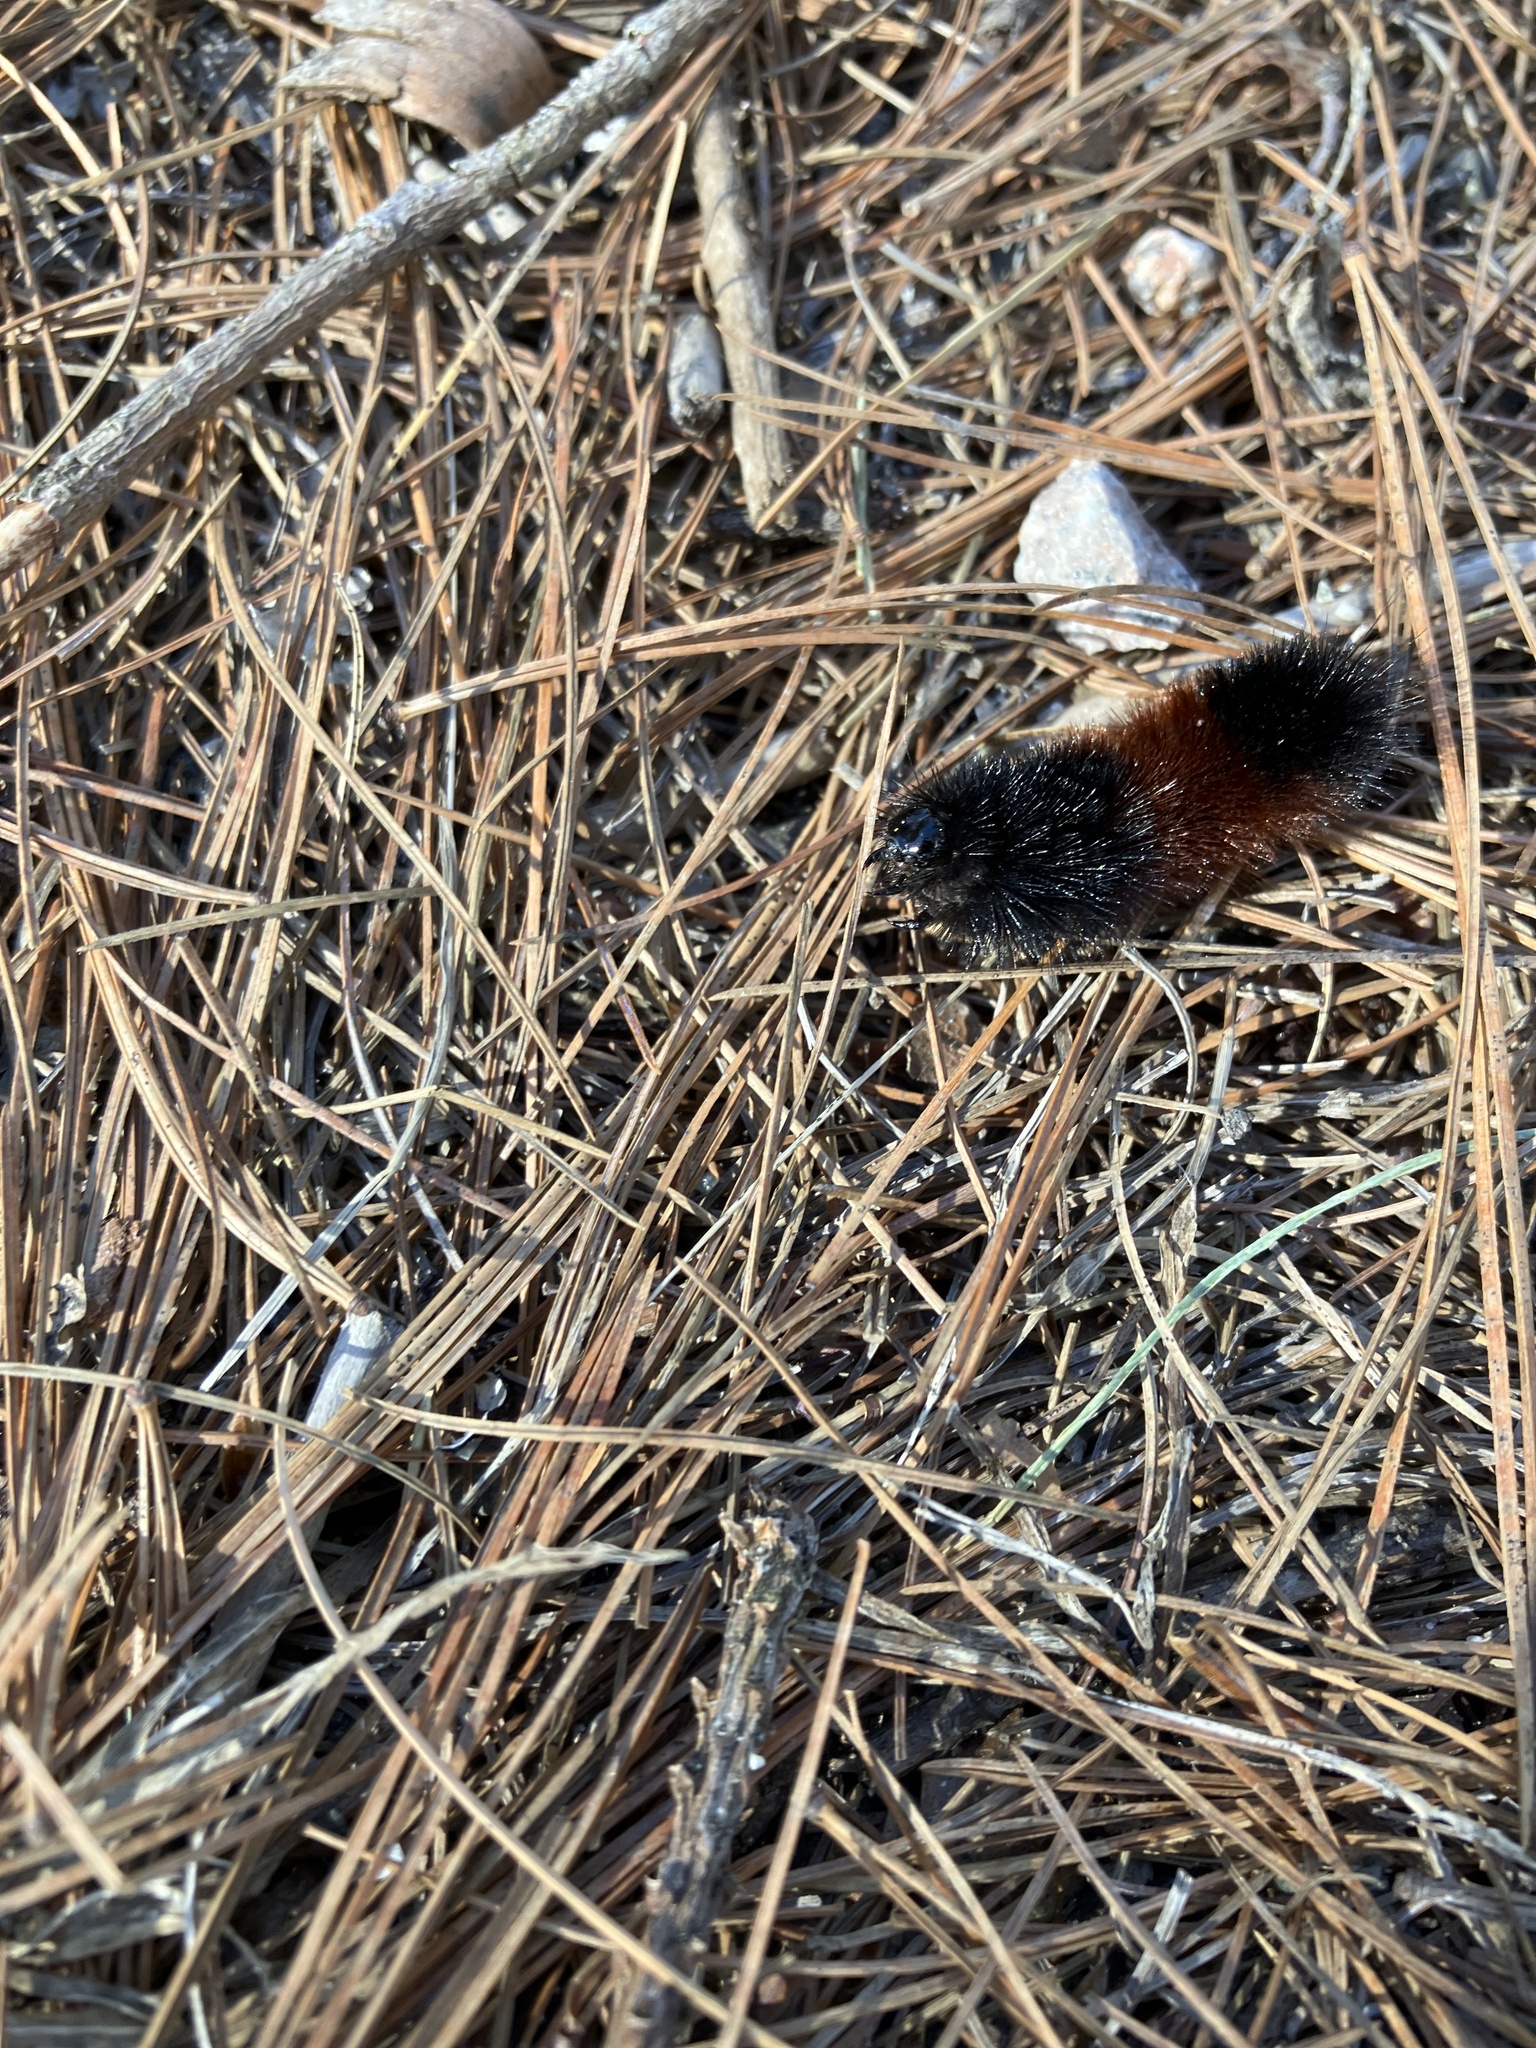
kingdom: Animalia
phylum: Arthropoda
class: Insecta
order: Lepidoptera
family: Erebidae
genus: Pyrrharctia
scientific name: Pyrrharctia isabella
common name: Isabella tiger moth
